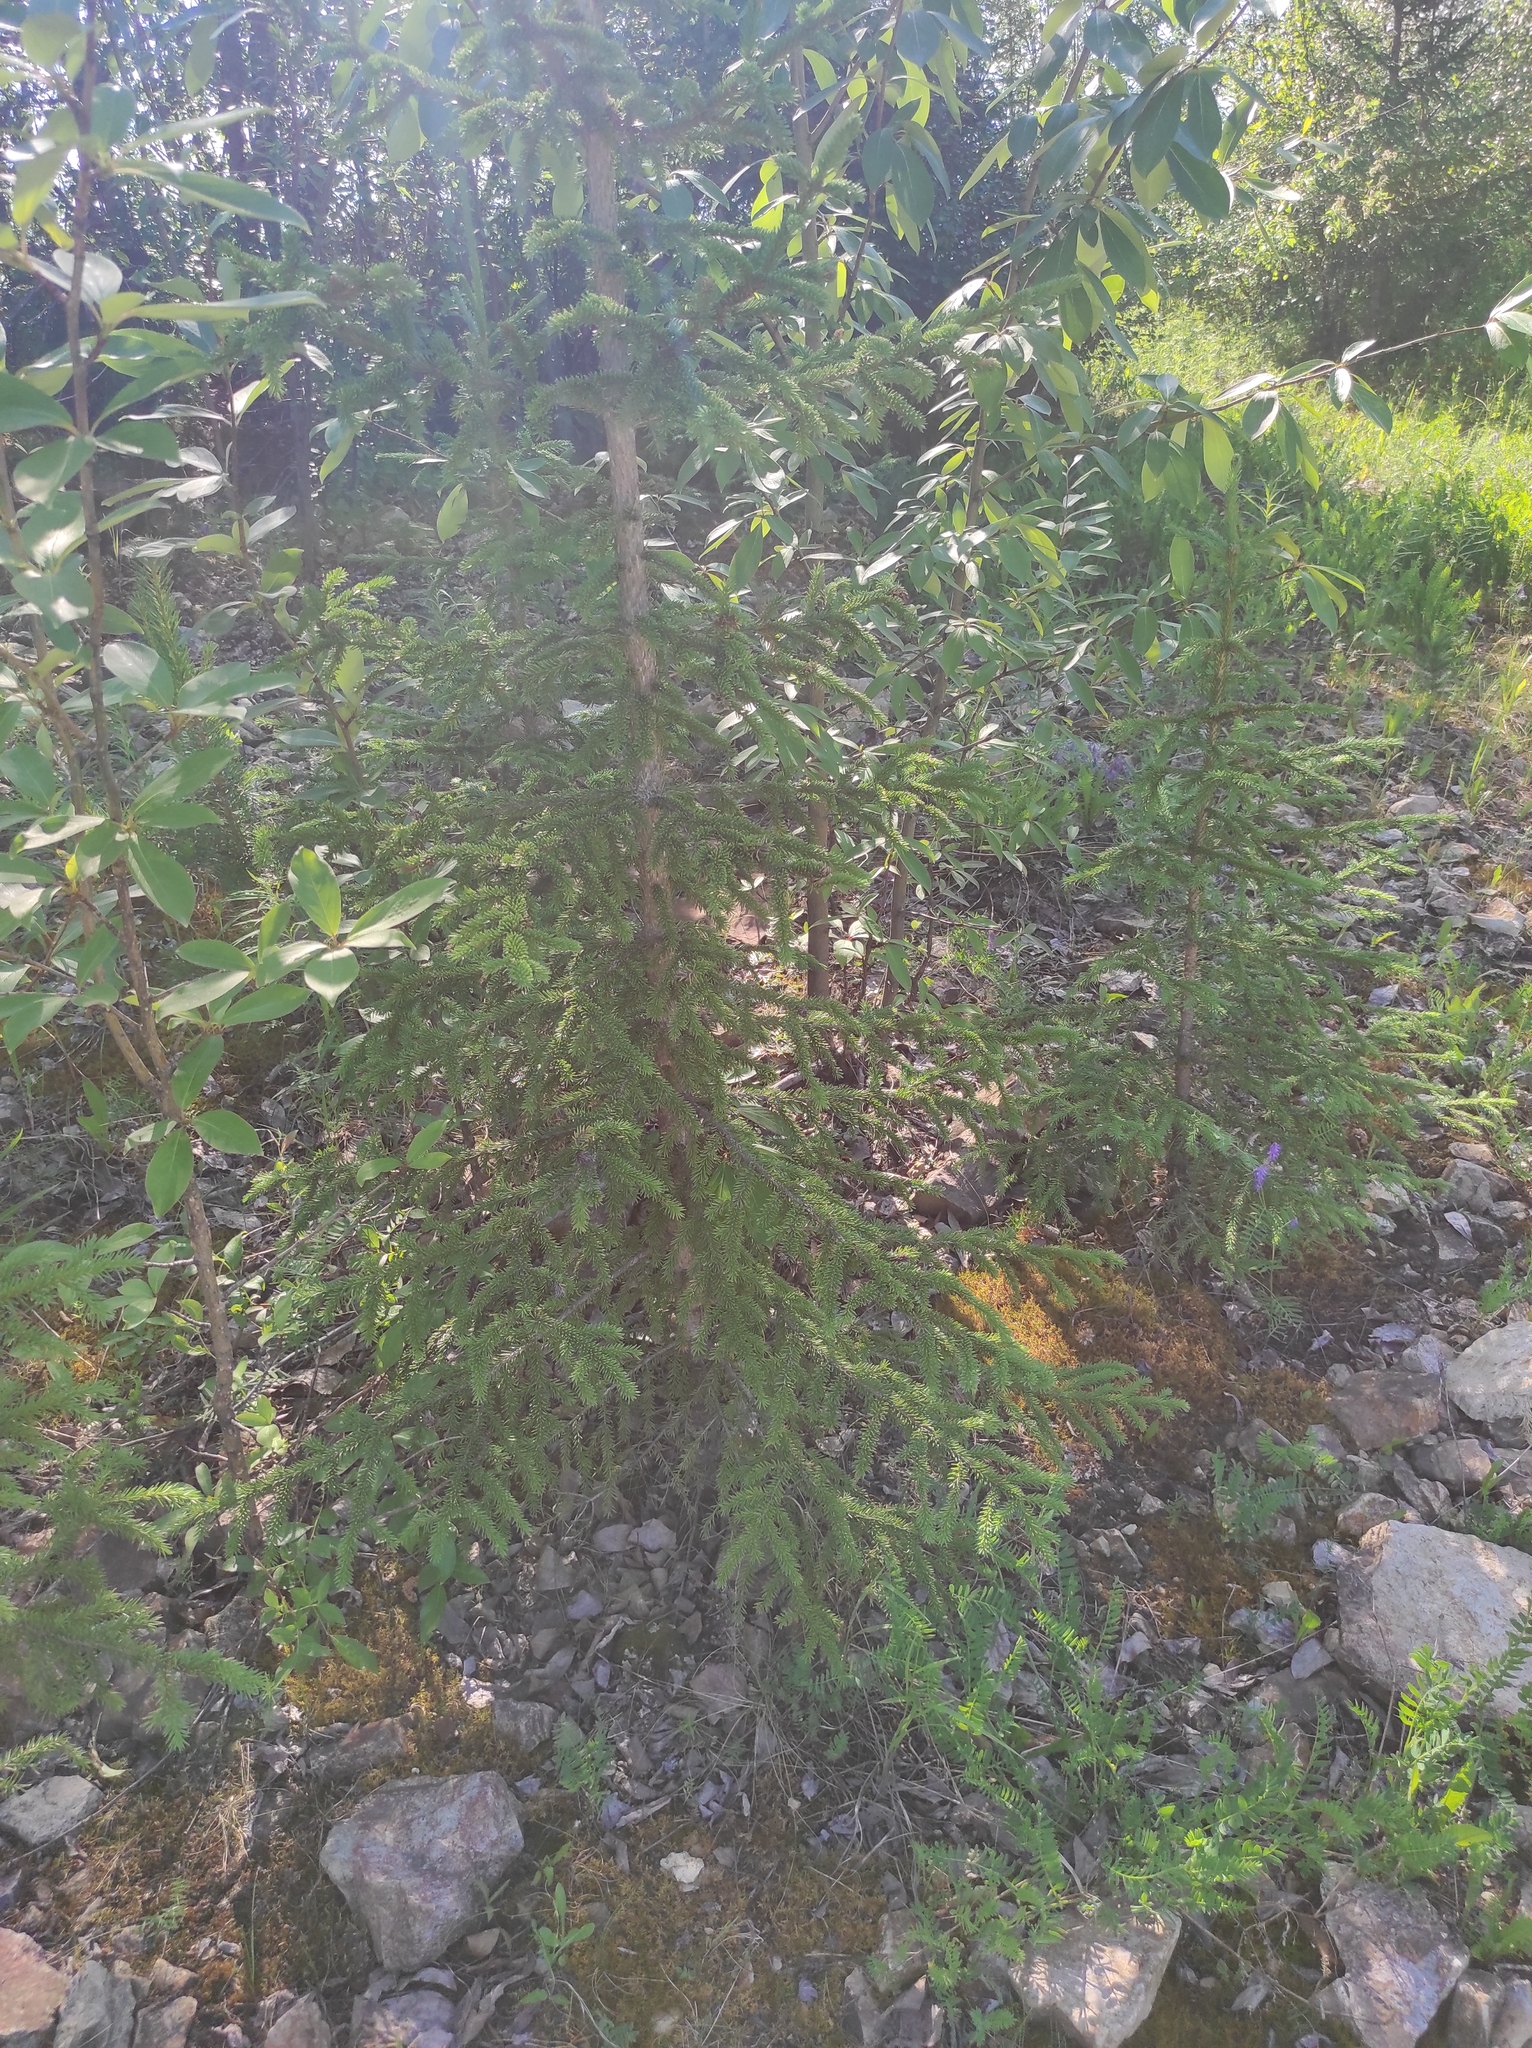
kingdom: Plantae
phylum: Tracheophyta
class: Pinopsida
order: Pinales
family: Pinaceae
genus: Picea
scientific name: Picea obovata
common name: Siberian spruce
